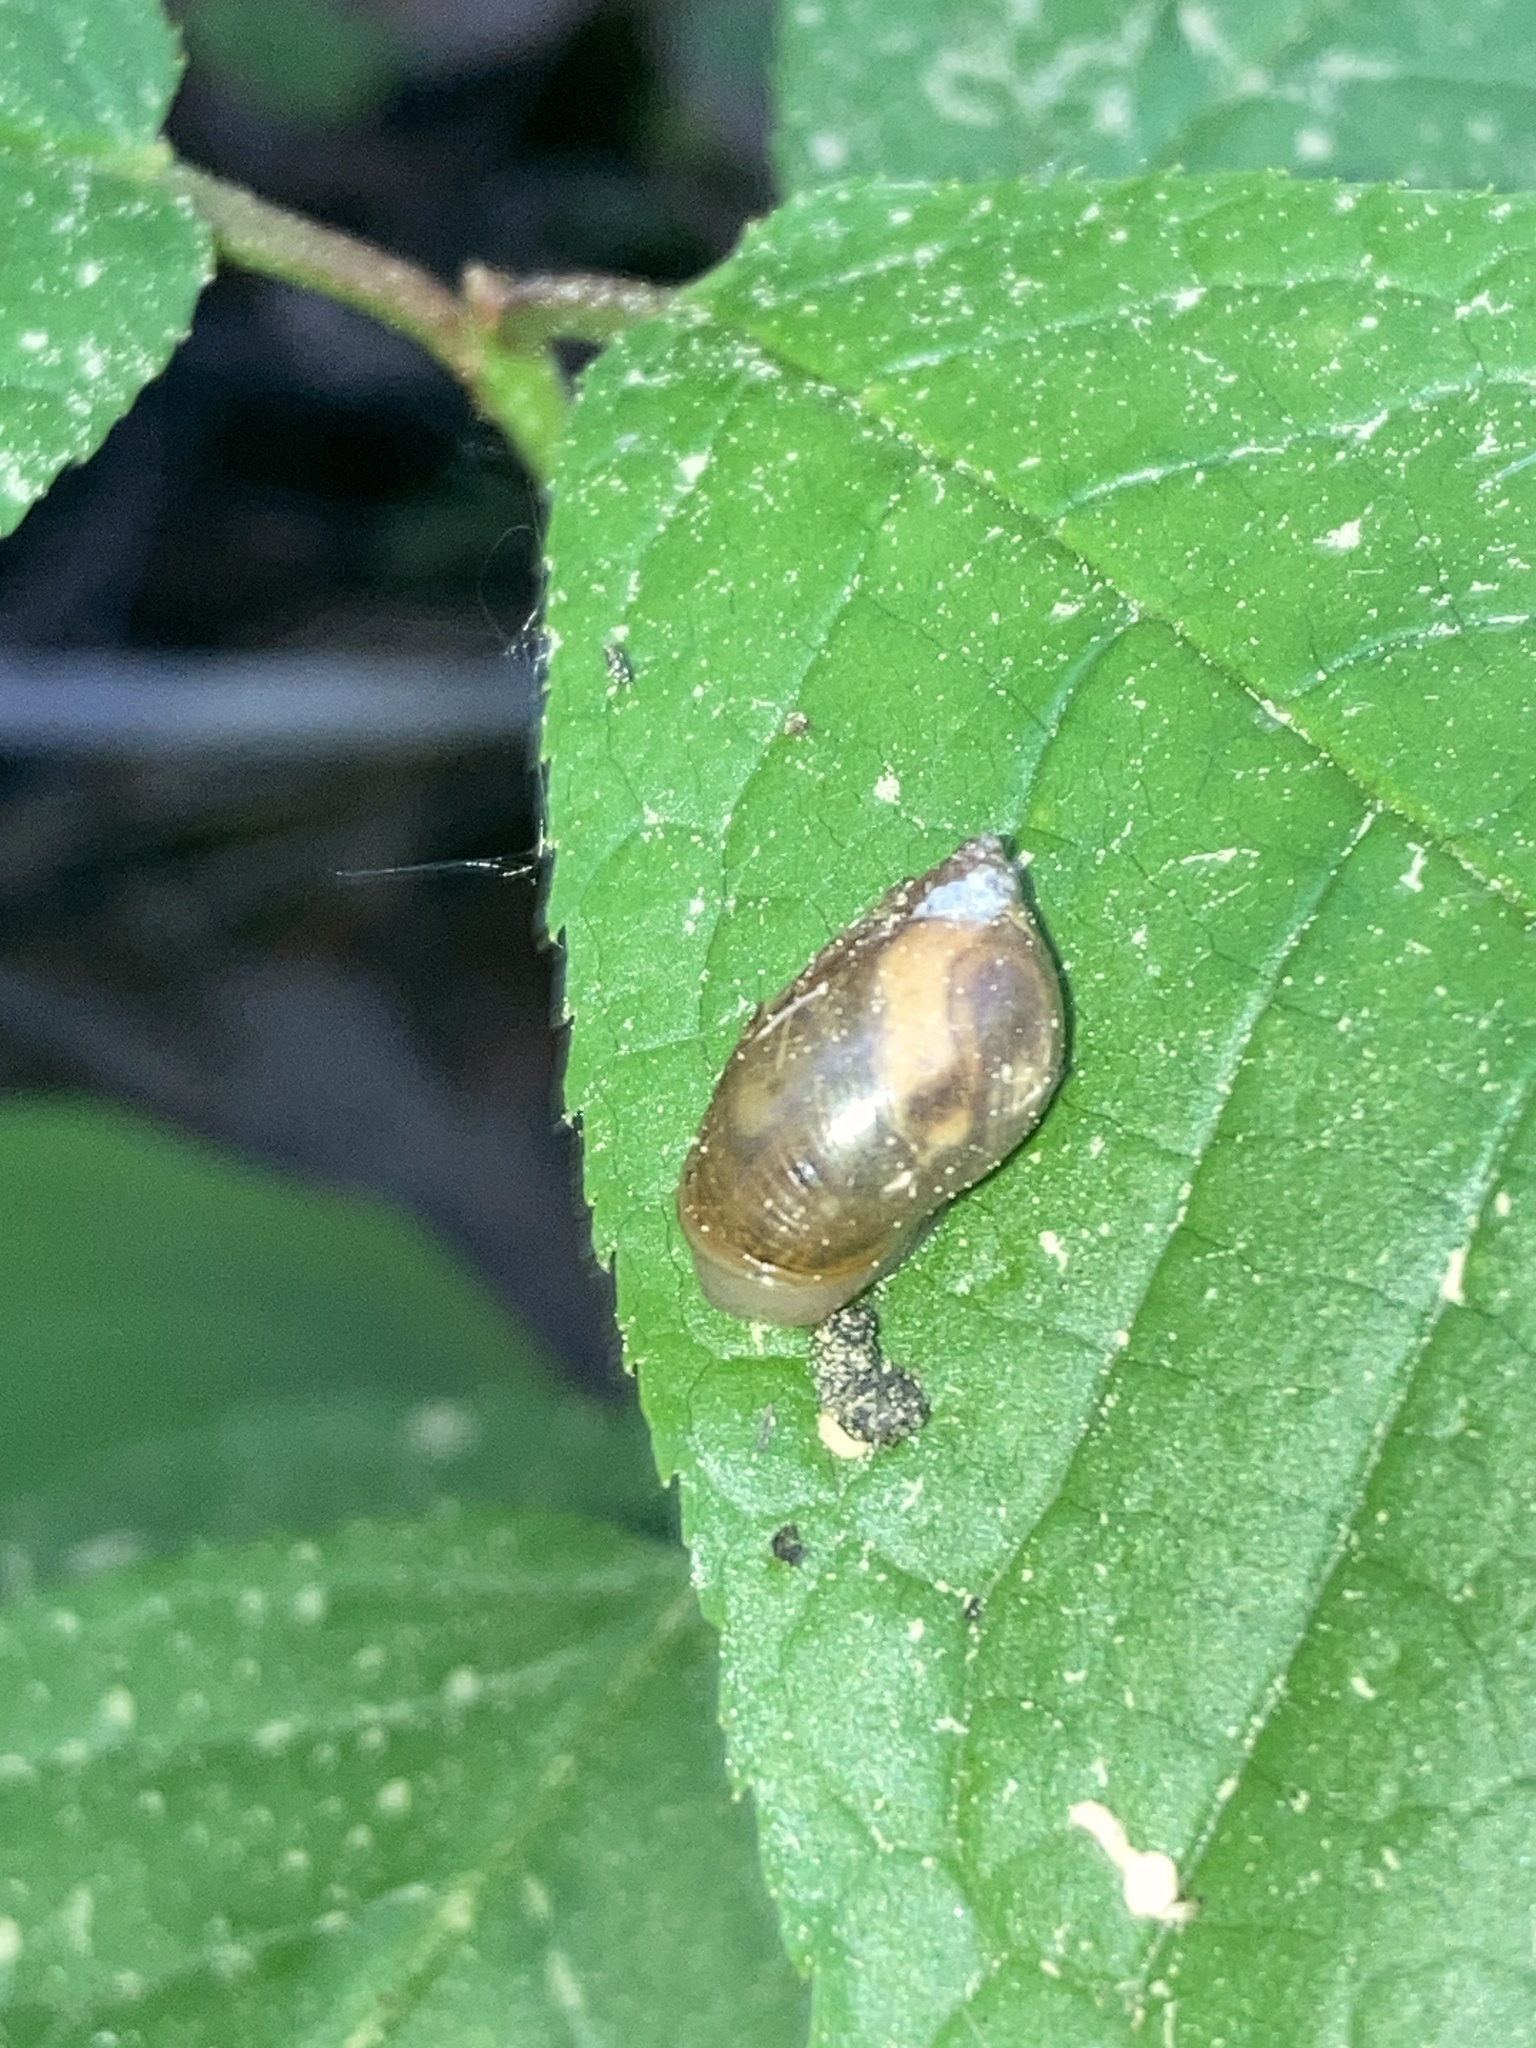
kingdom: Animalia
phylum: Mollusca
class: Gastropoda
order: Stylommatophora
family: Succineidae
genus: Succinea
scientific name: Succinea putris
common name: European ambersnail
